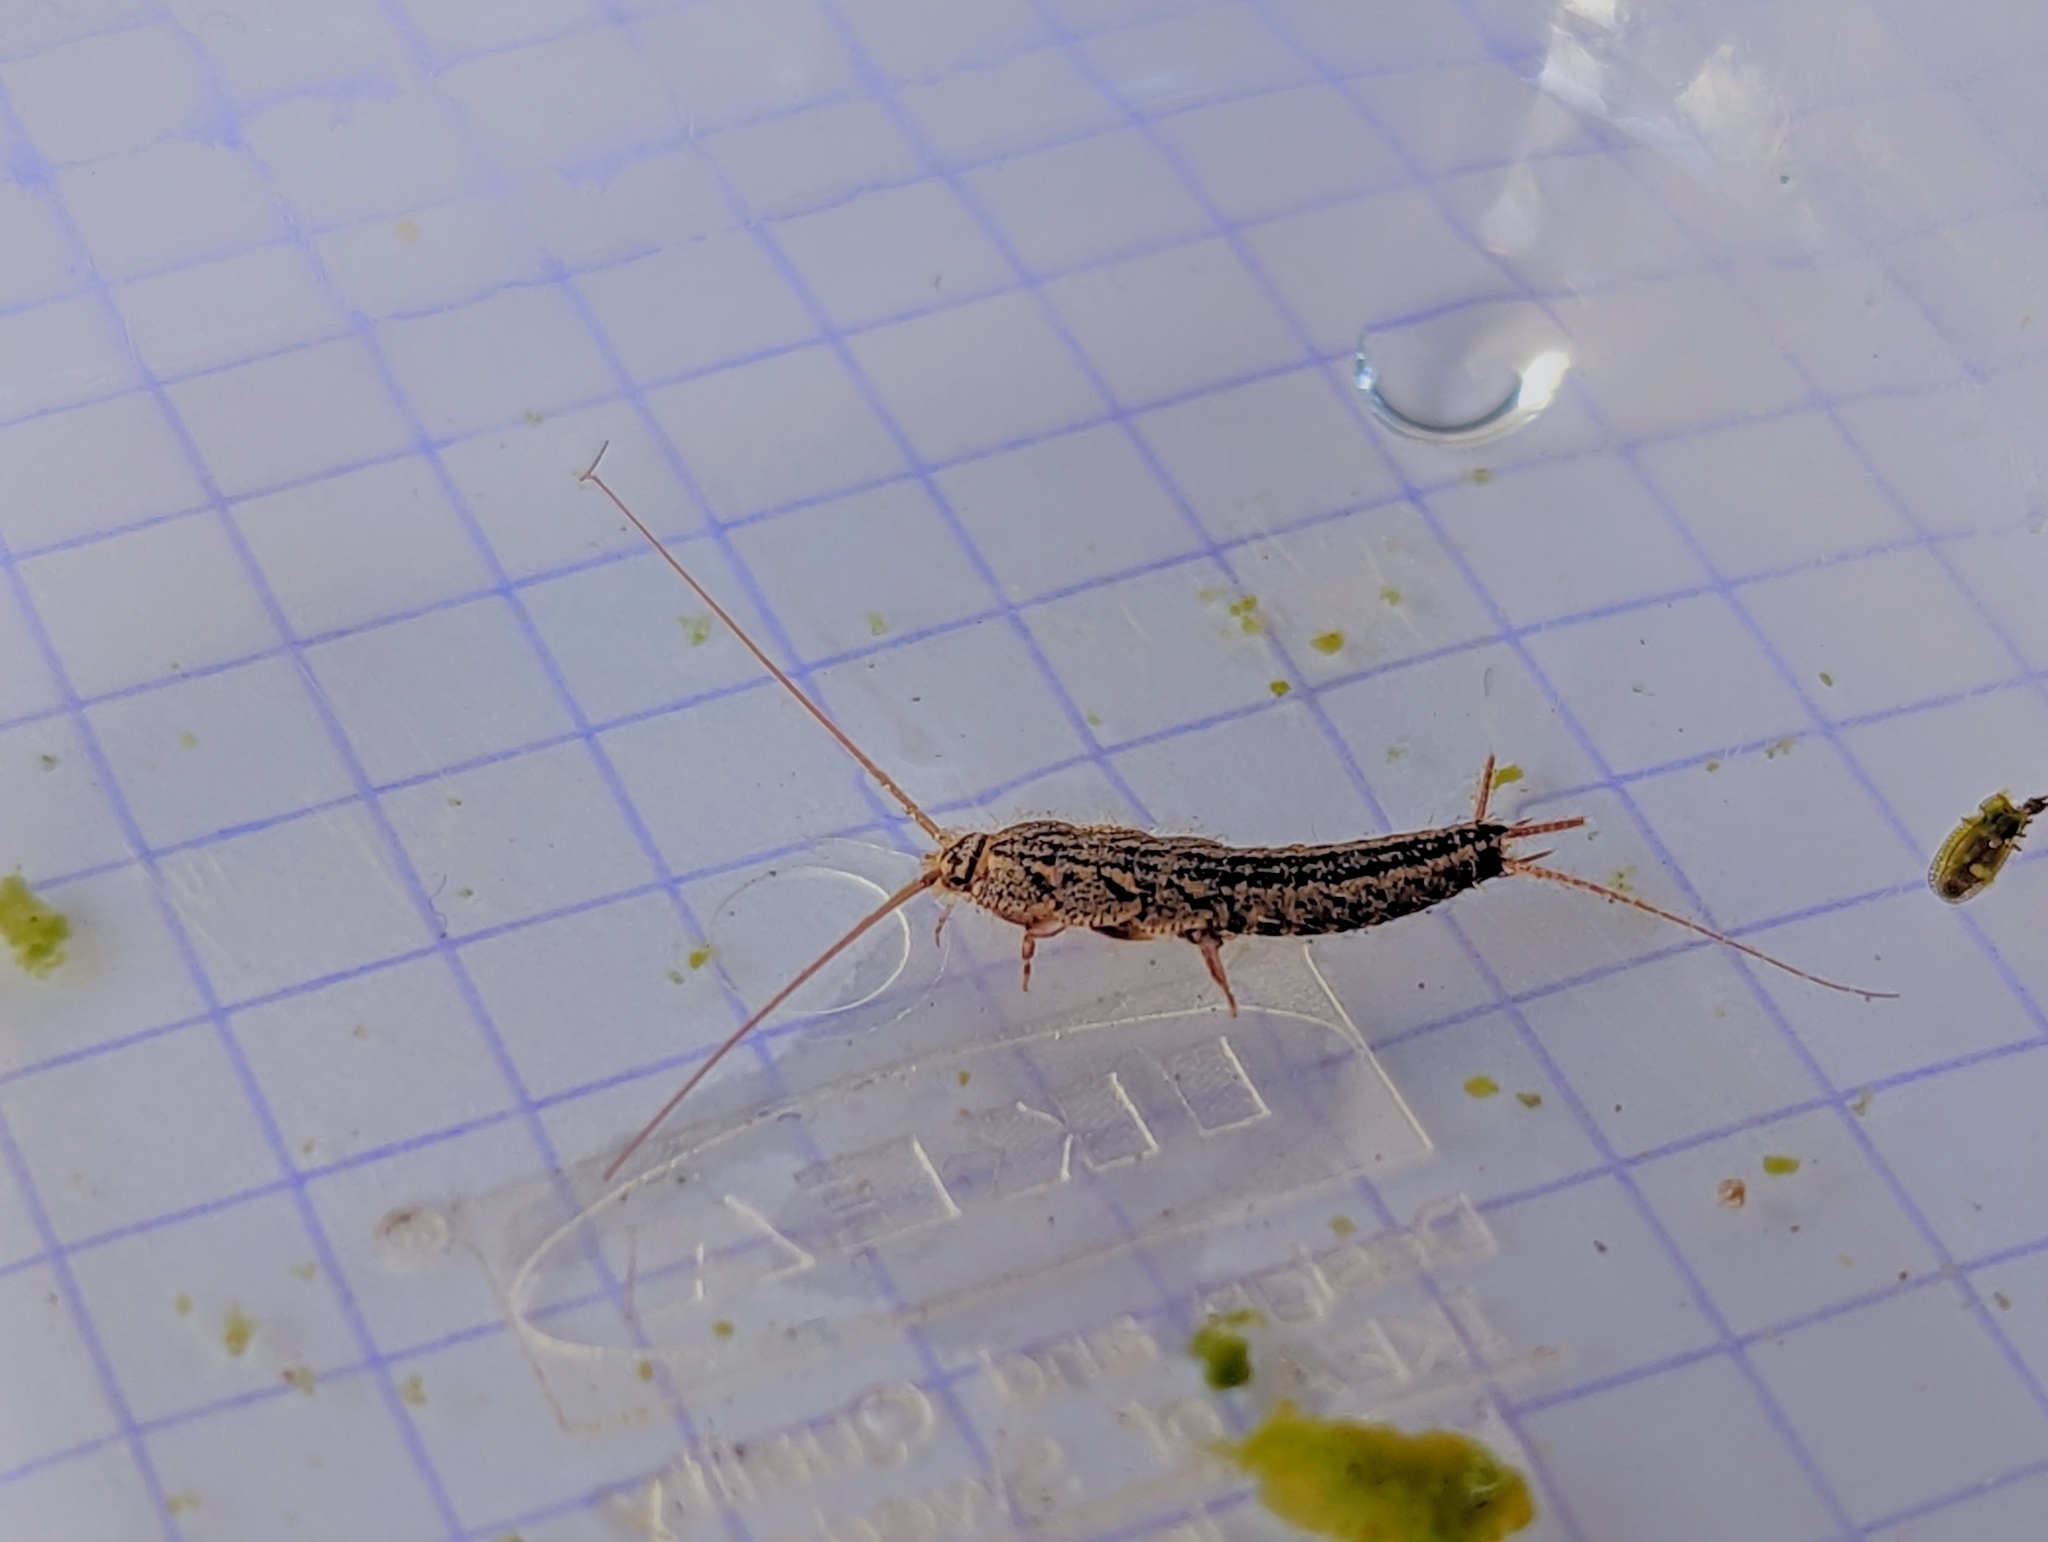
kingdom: Animalia
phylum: Arthropoda
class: Insecta
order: Zygentoma
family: Lepismatidae
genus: Ctenolepisma
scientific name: Ctenolepisma lineata
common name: Four-lined silverfish
